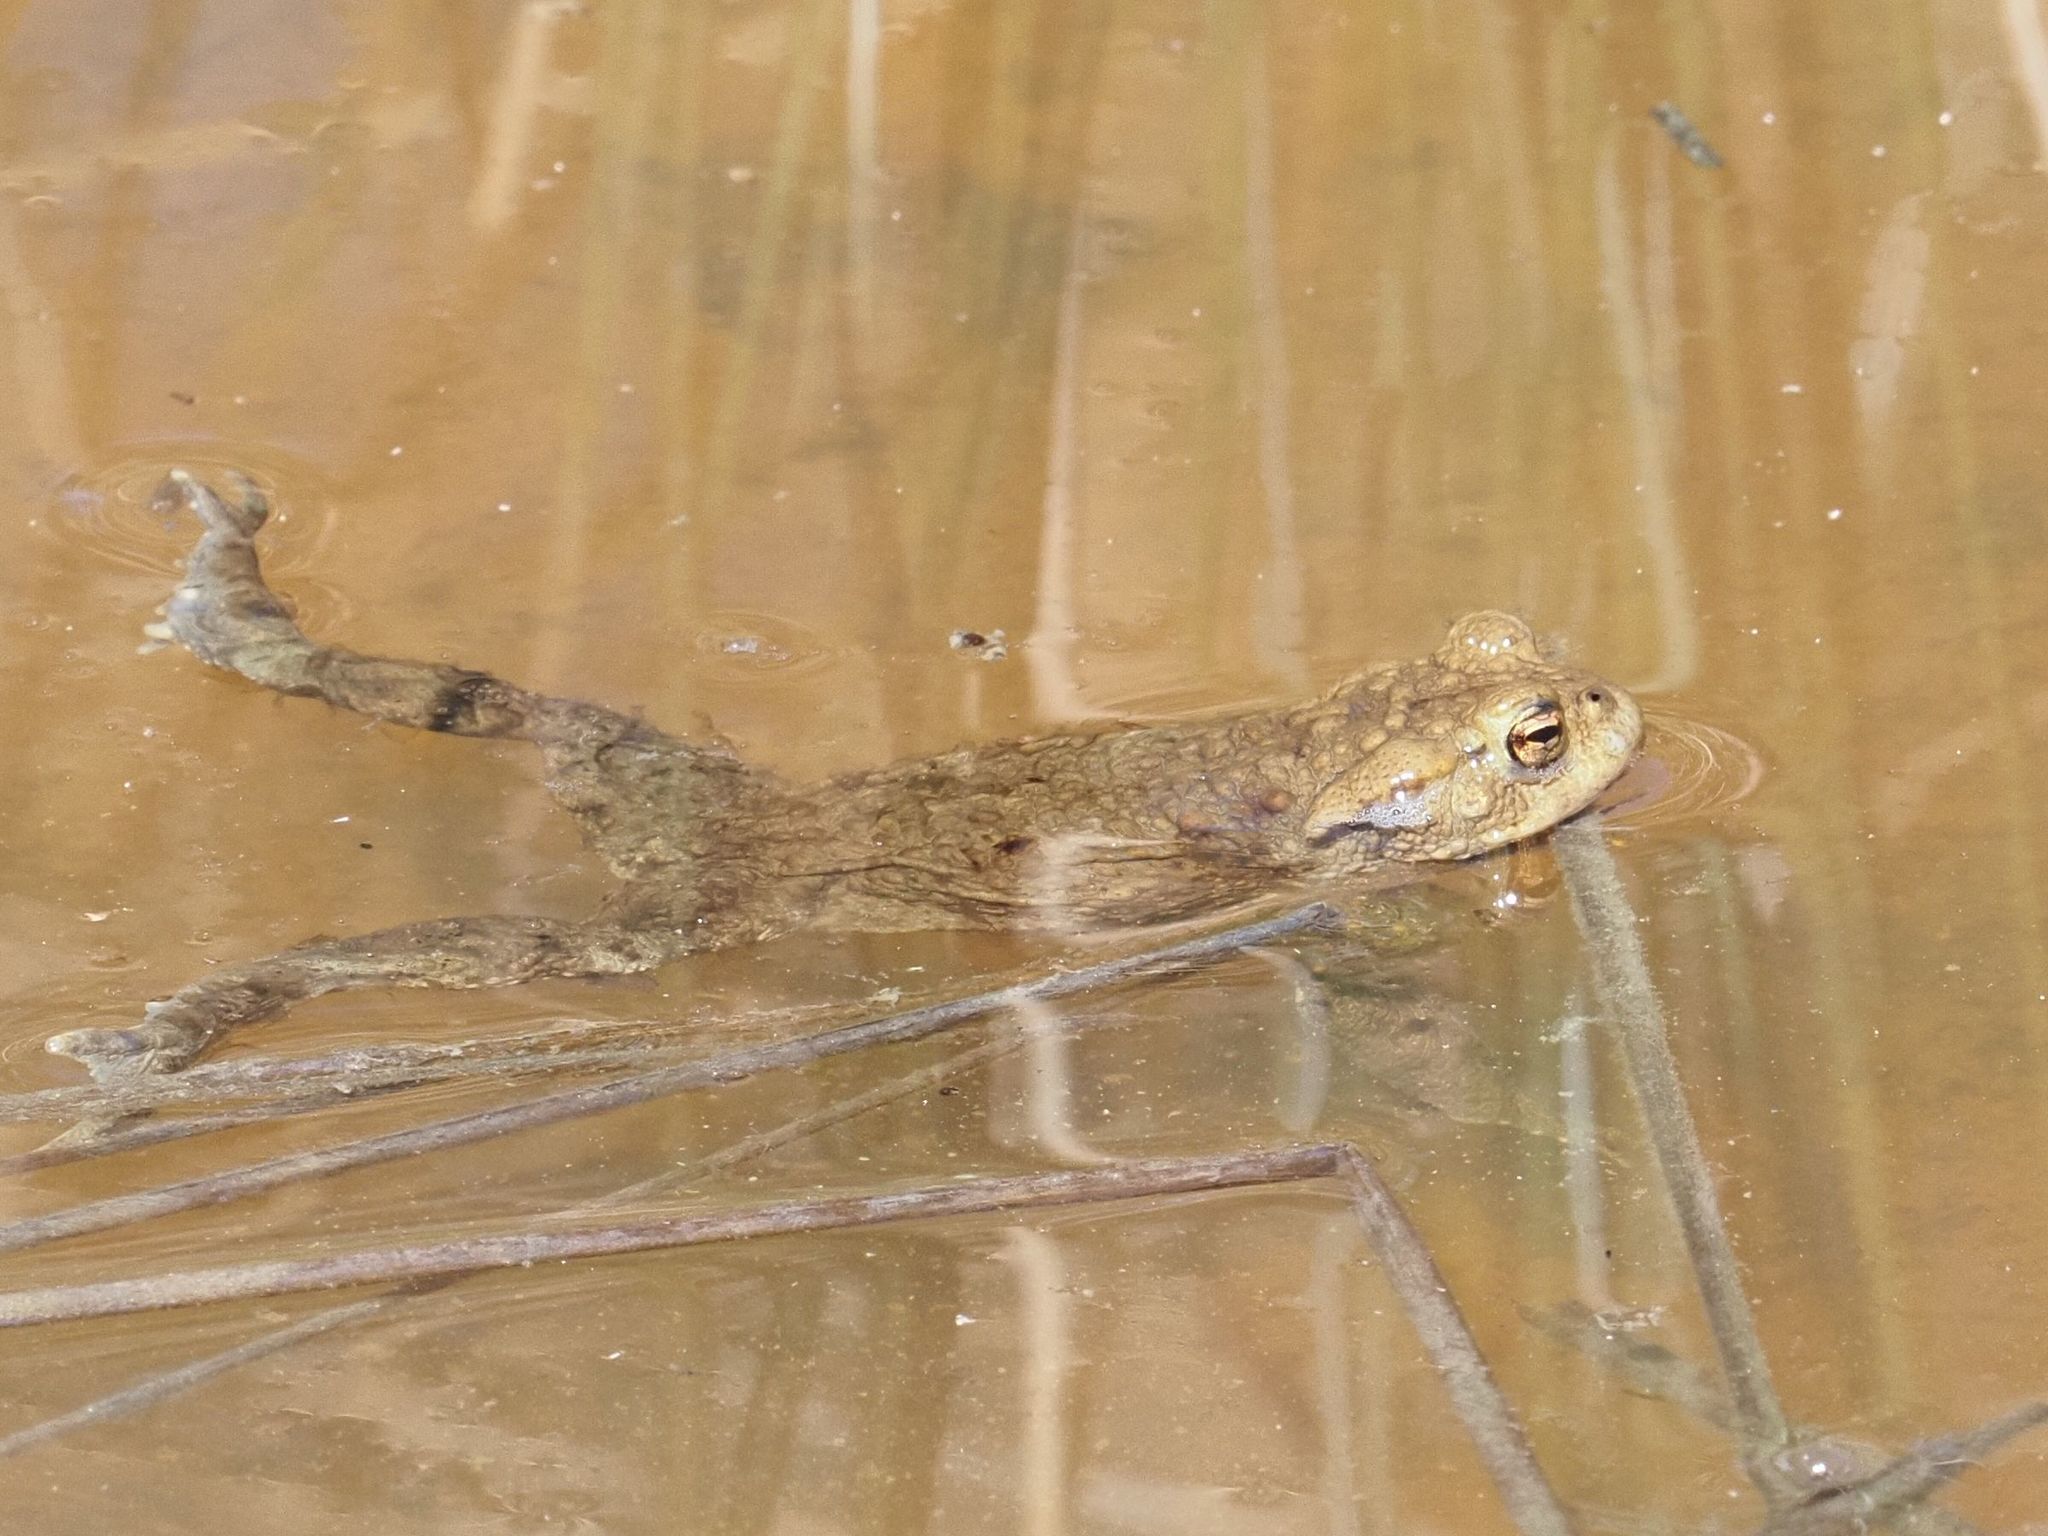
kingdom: Animalia
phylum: Chordata
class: Amphibia
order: Anura
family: Bufonidae
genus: Bufo
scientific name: Bufo bufo
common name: Common toad
